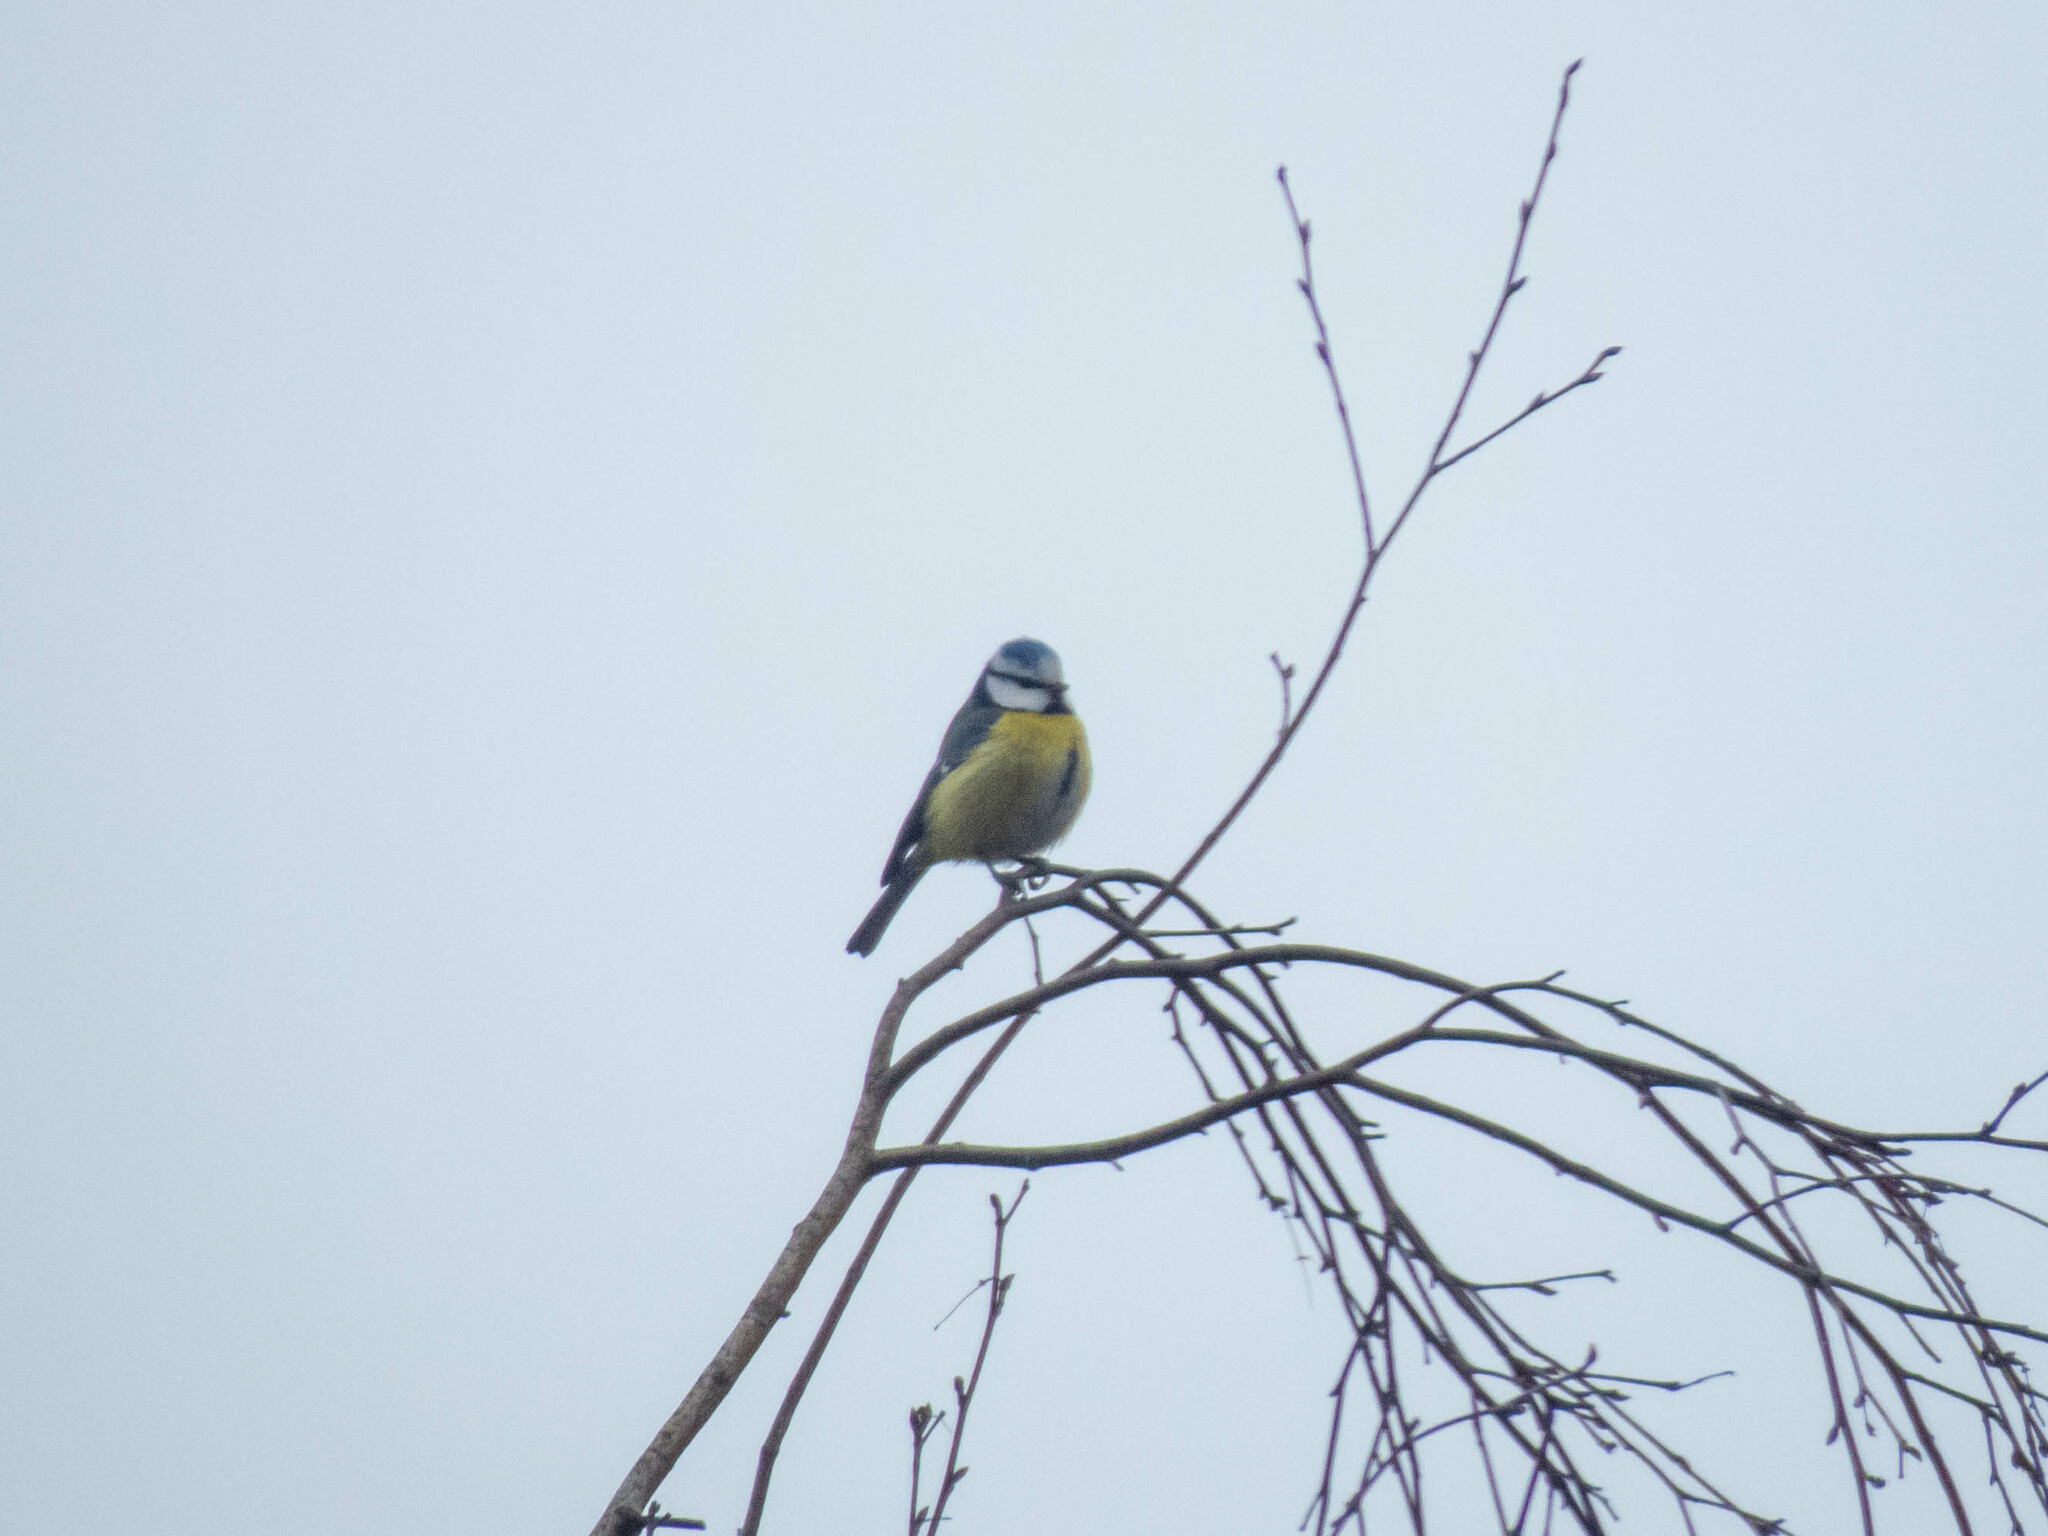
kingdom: Animalia
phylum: Chordata
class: Aves
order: Passeriformes
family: Paridae
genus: Cyanistes
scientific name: Cyanistes caeruleus
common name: Eurasian blue tit
